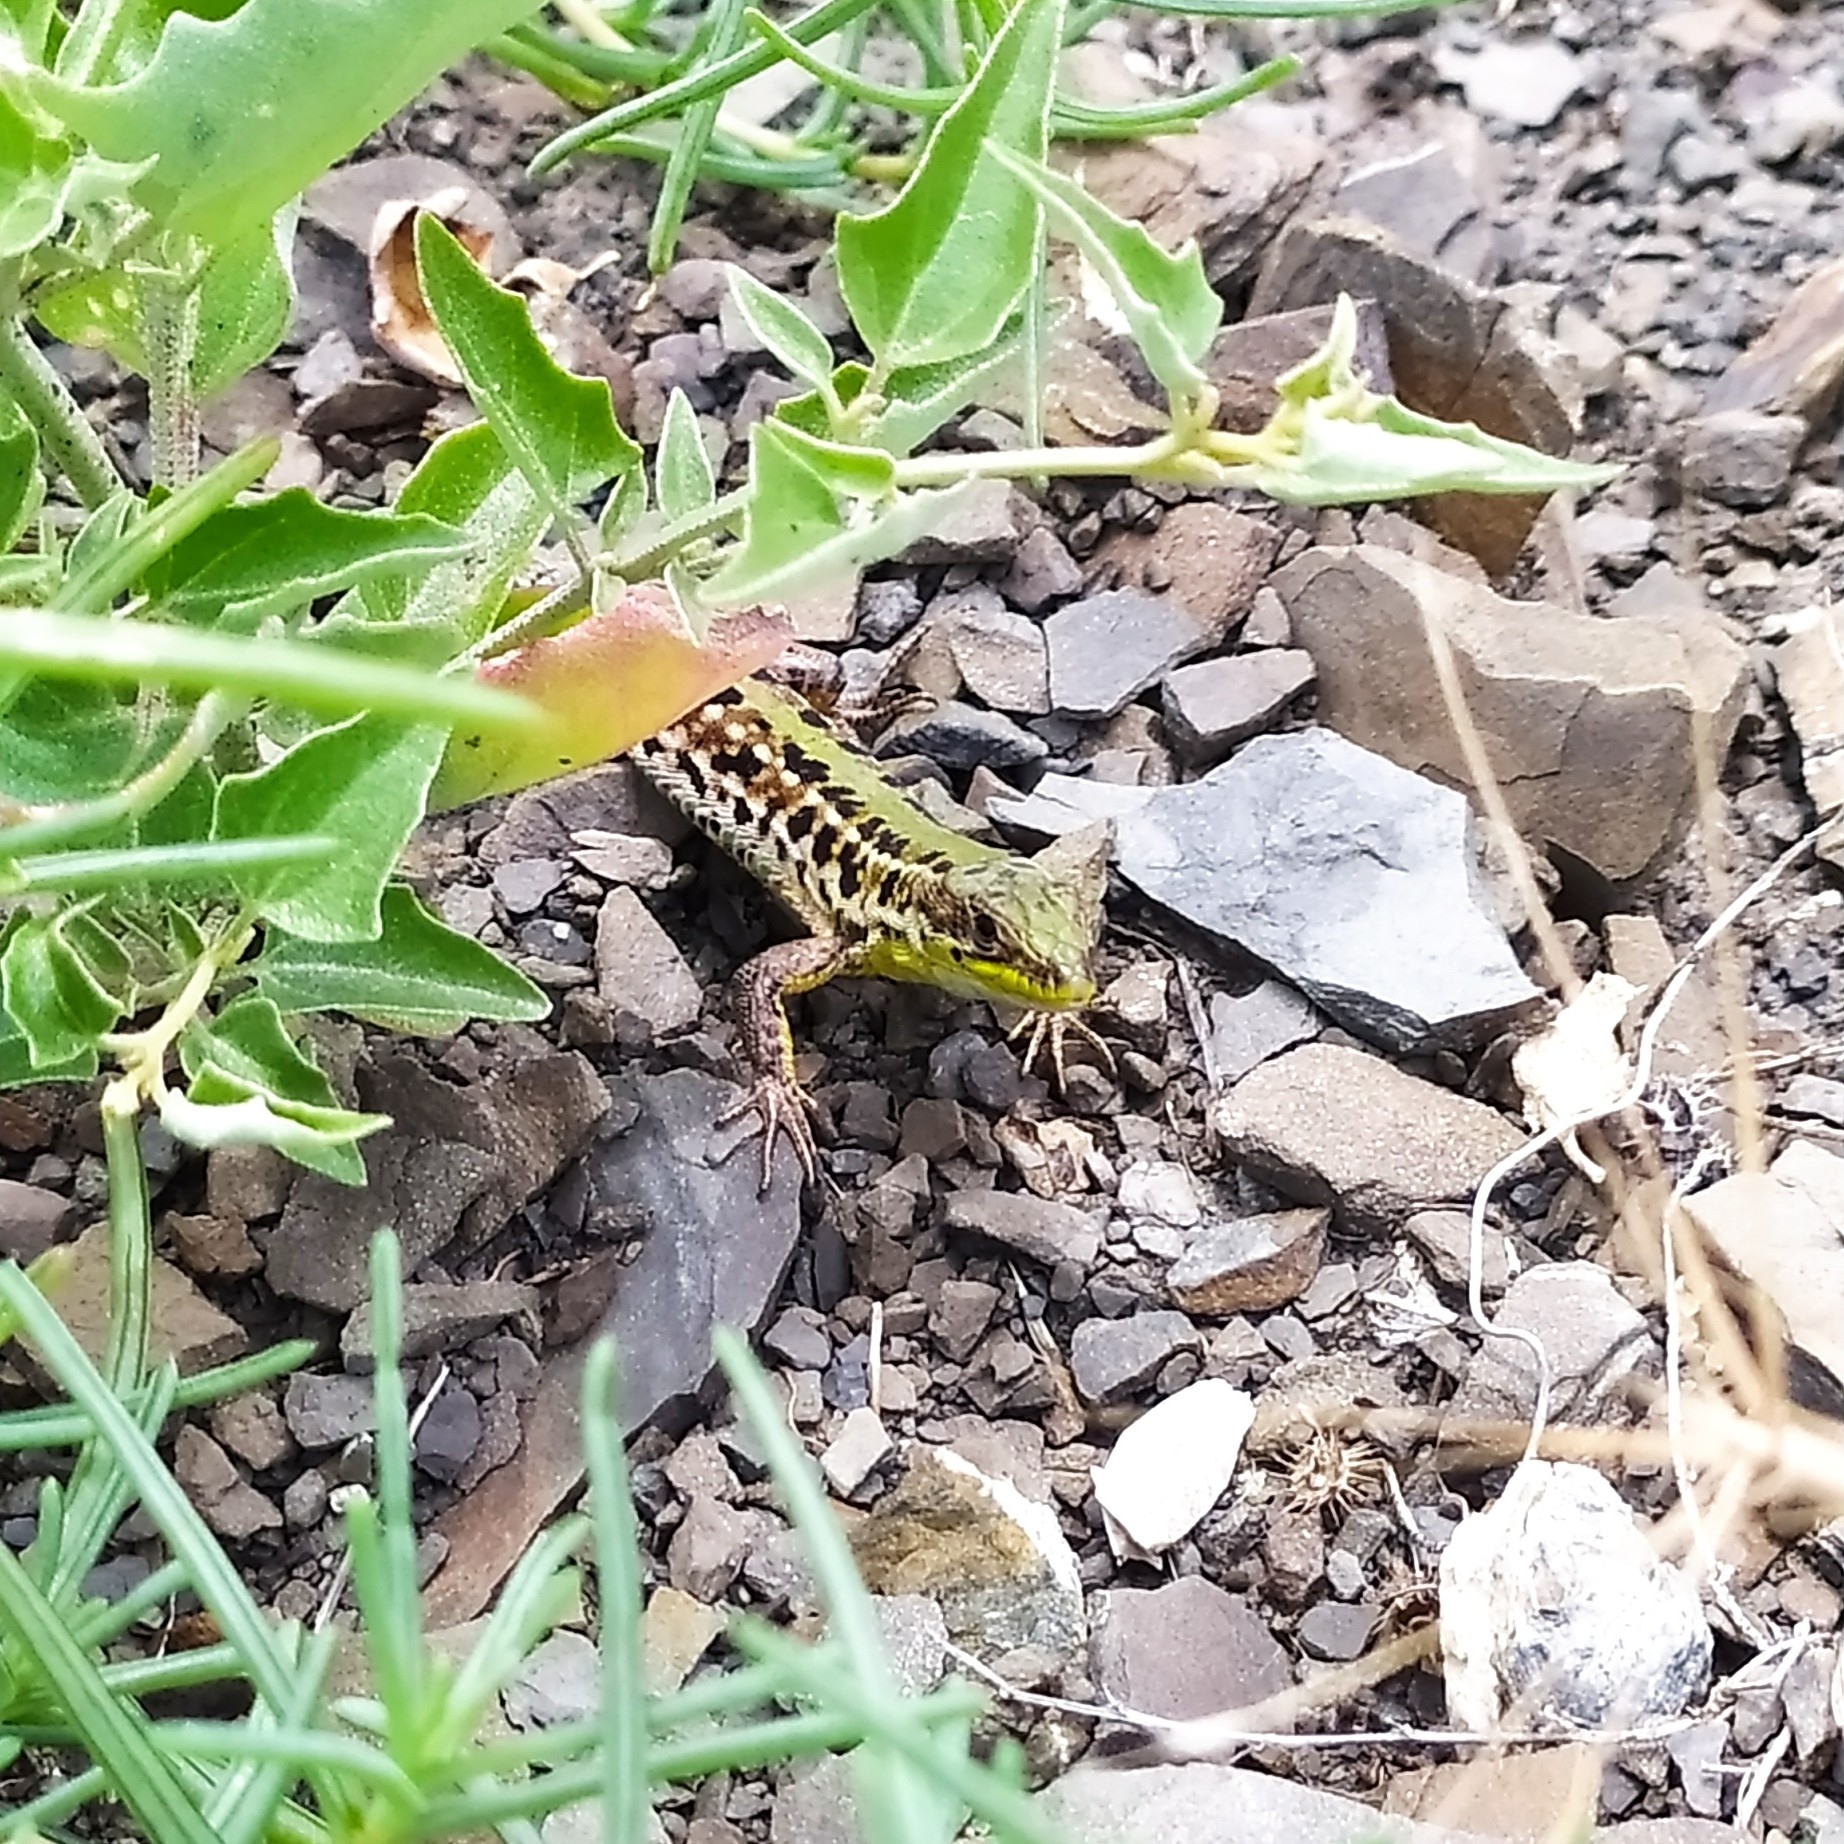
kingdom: Animalia
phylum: Chordata
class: Squamata
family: Lacertidae
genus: Podarcis
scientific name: Podarcis tauricus
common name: Balkan wall lizard
